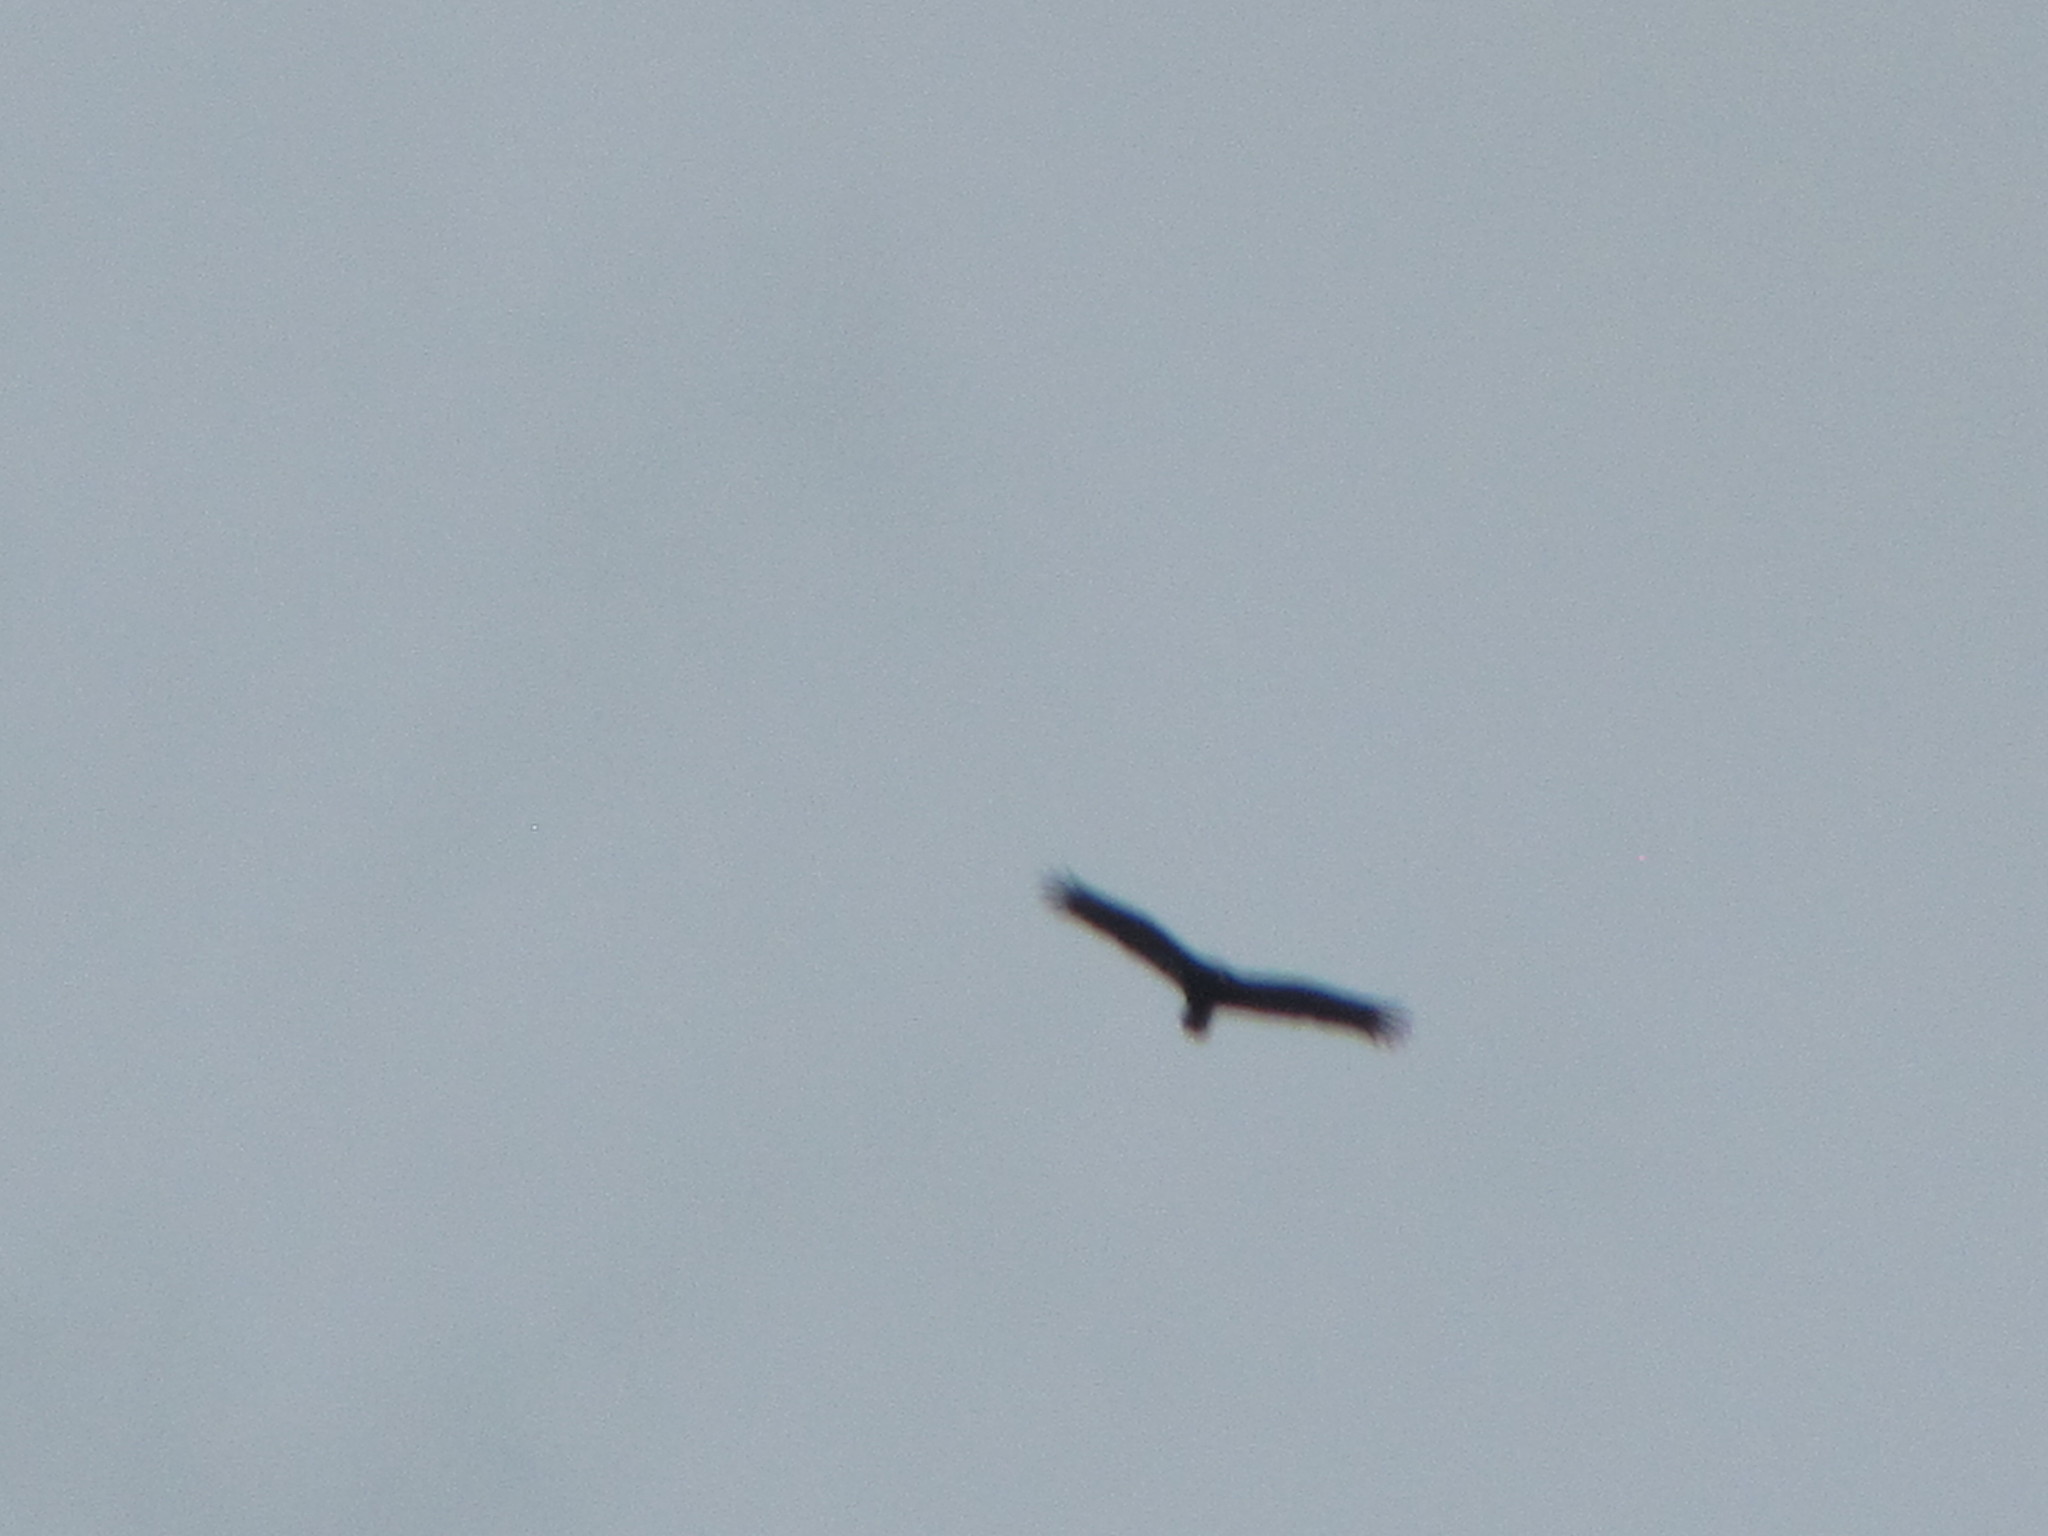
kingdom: Animalia
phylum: Chordata
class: Aves
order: Accipitriformes
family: Cathartidae
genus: Cathartes
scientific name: Cathartes aura
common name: Turkey vulture
